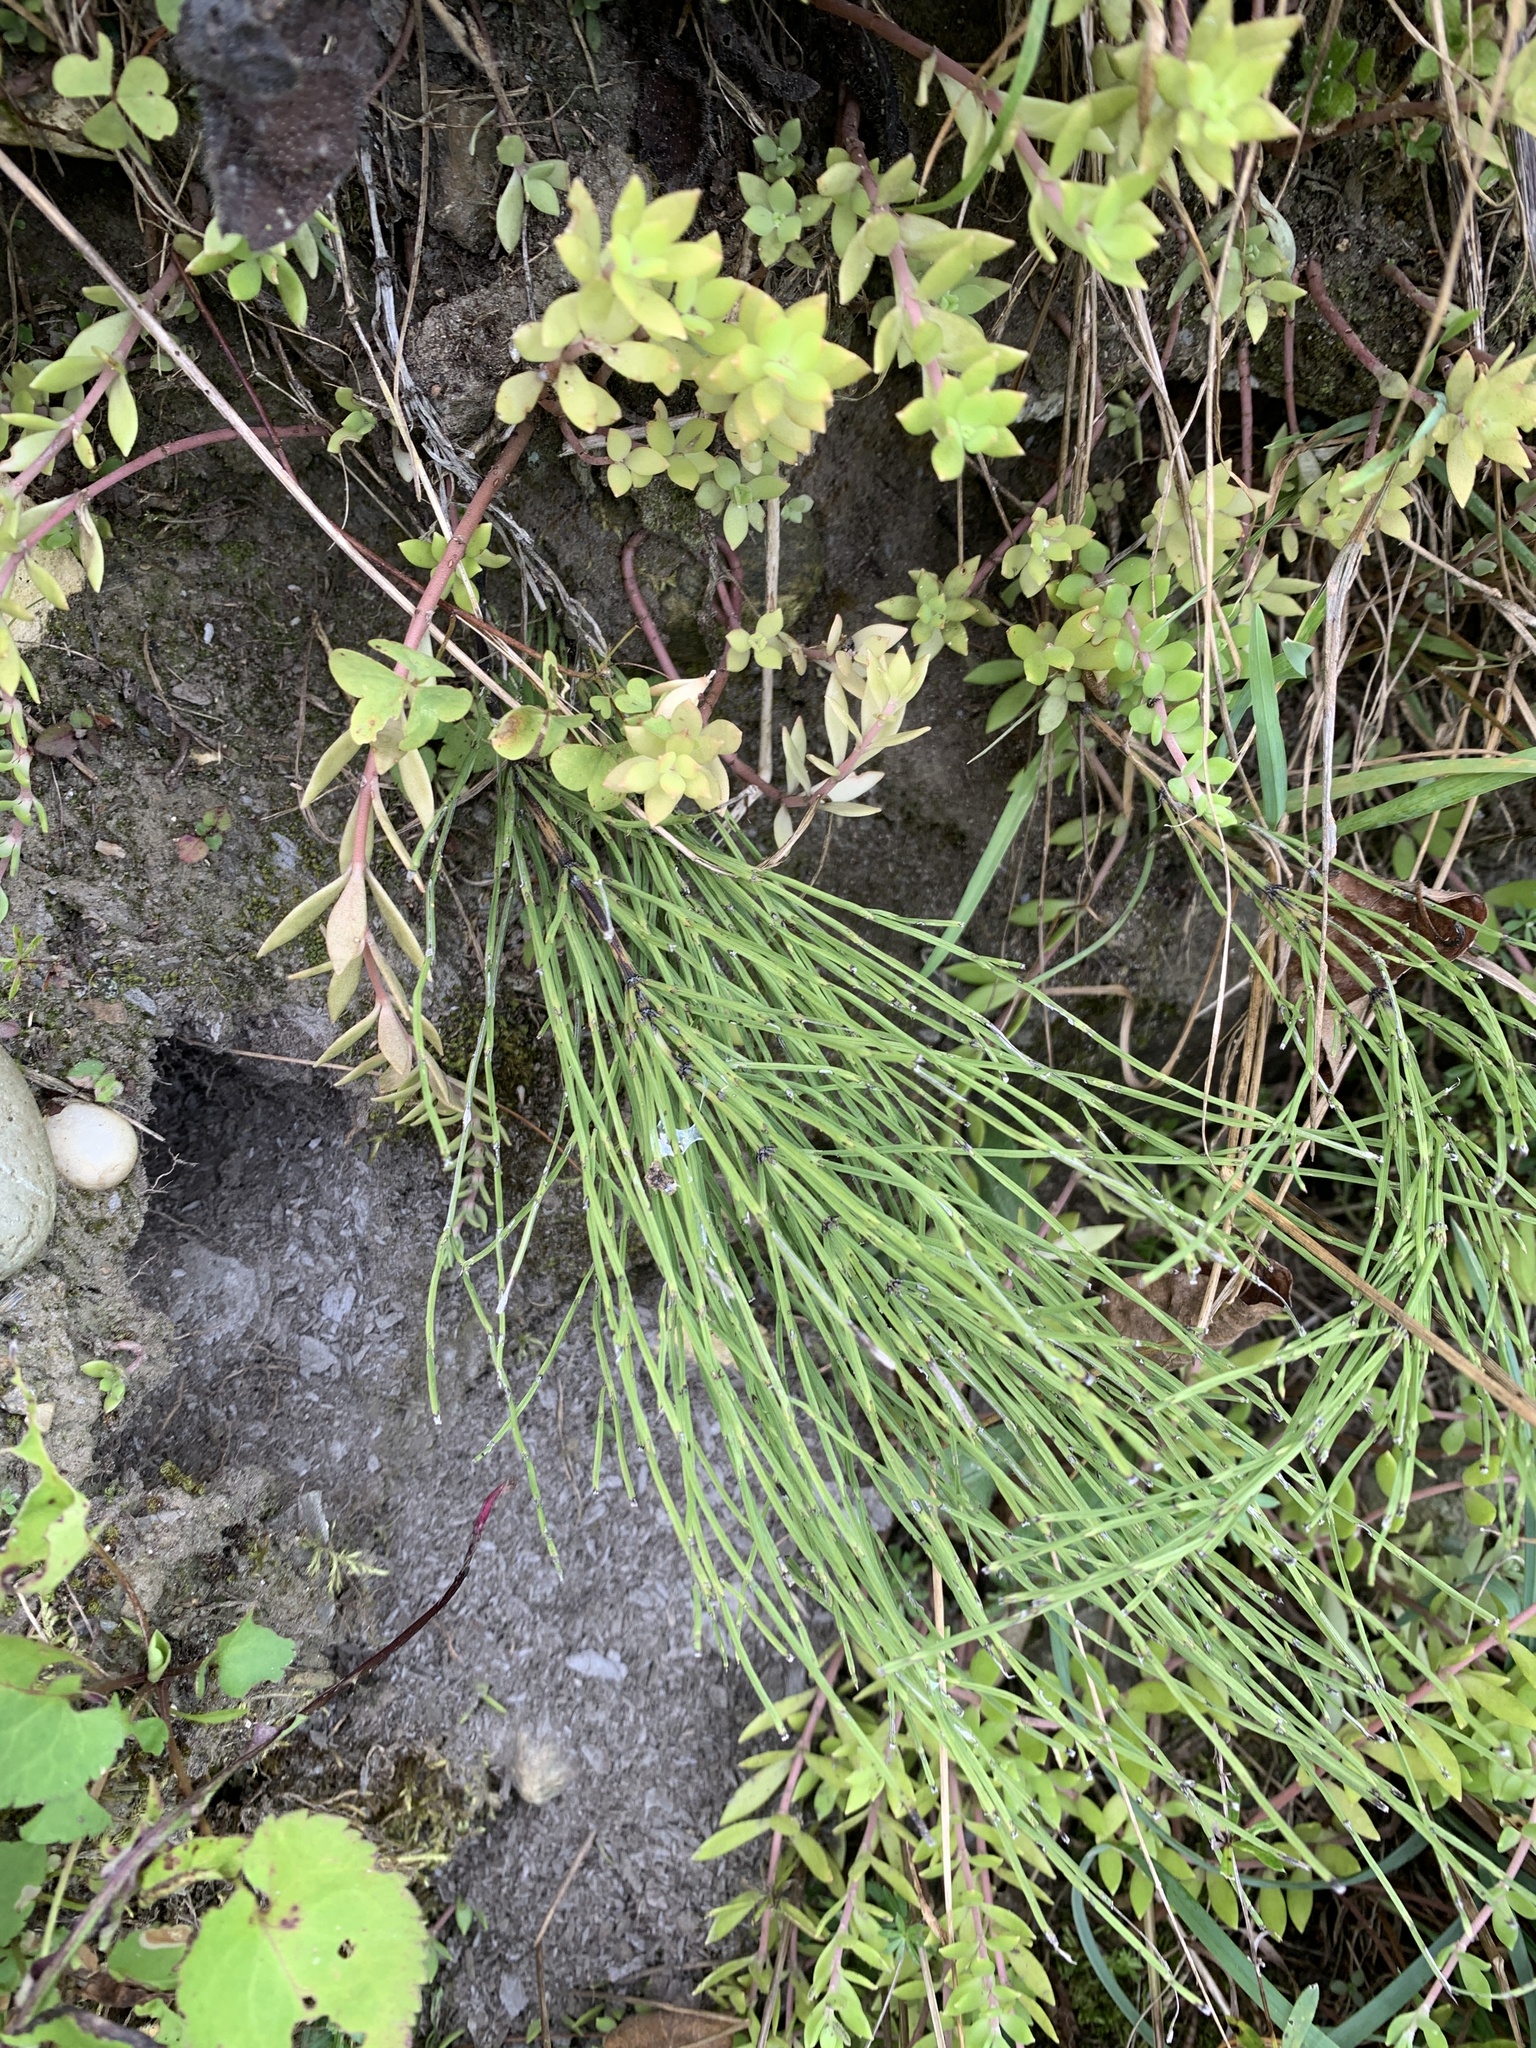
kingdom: Plantae
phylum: Tracheophyta
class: Polypodiopsida
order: Equisetales
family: Equisetaceae
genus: Equisetum
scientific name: Equisetum arvense
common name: Field horsetail
